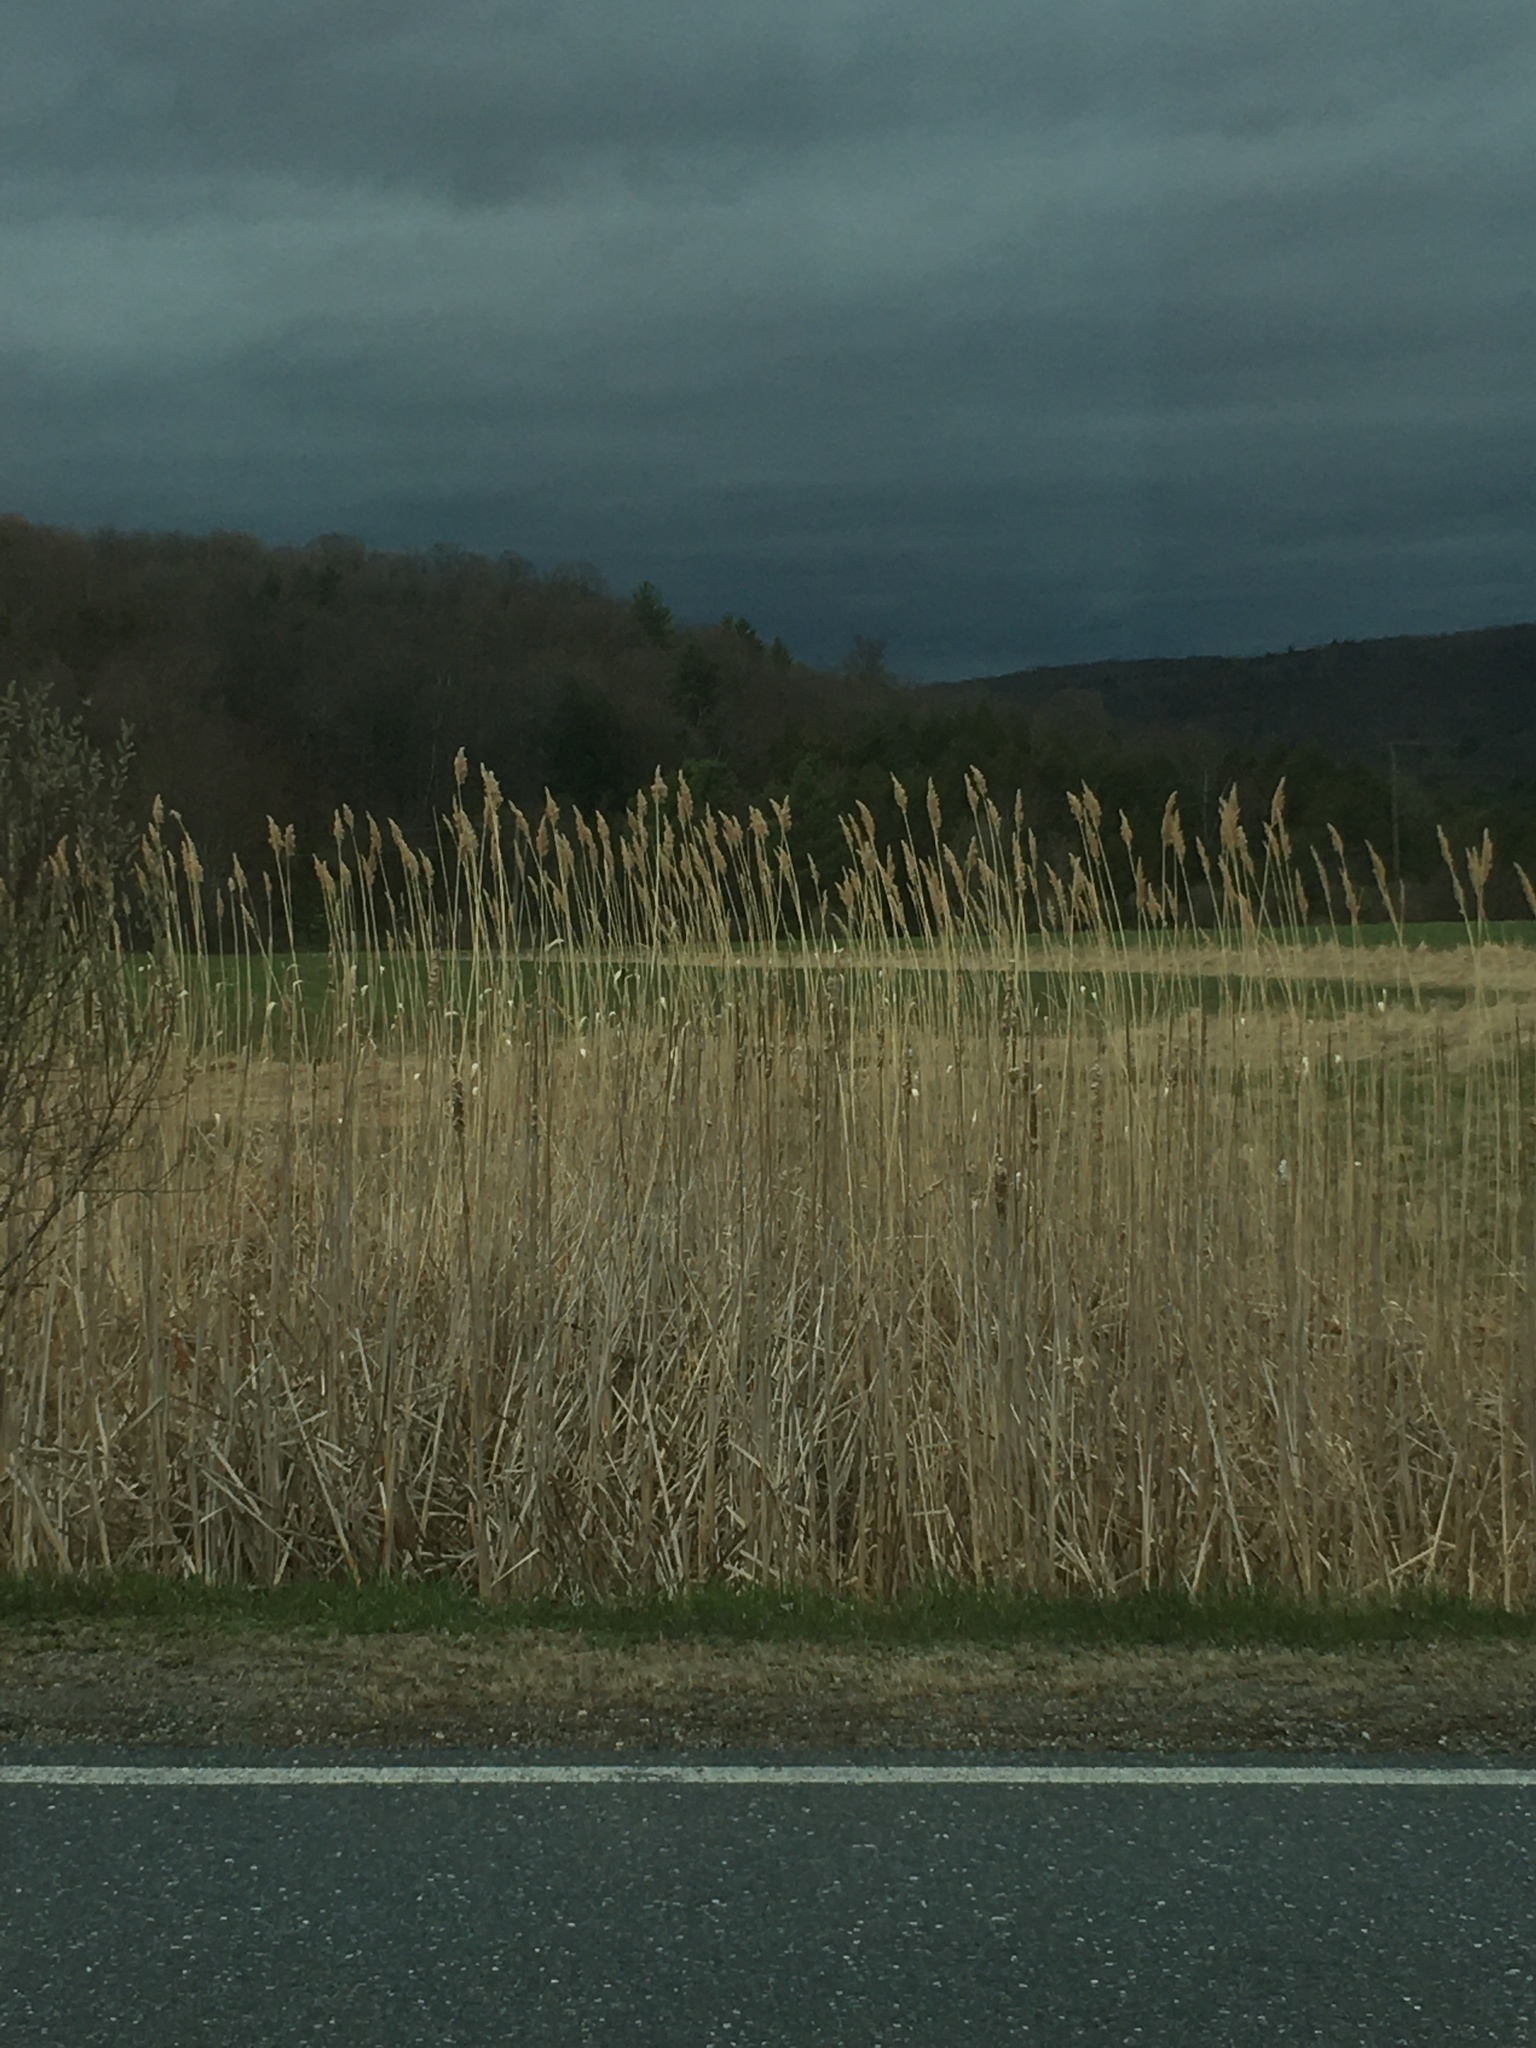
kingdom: Plantae
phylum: Tracheophyta
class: Liliopsida
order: Poales
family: Poaceae
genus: Phragmites
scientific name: Phragmites australis
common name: Common reed
